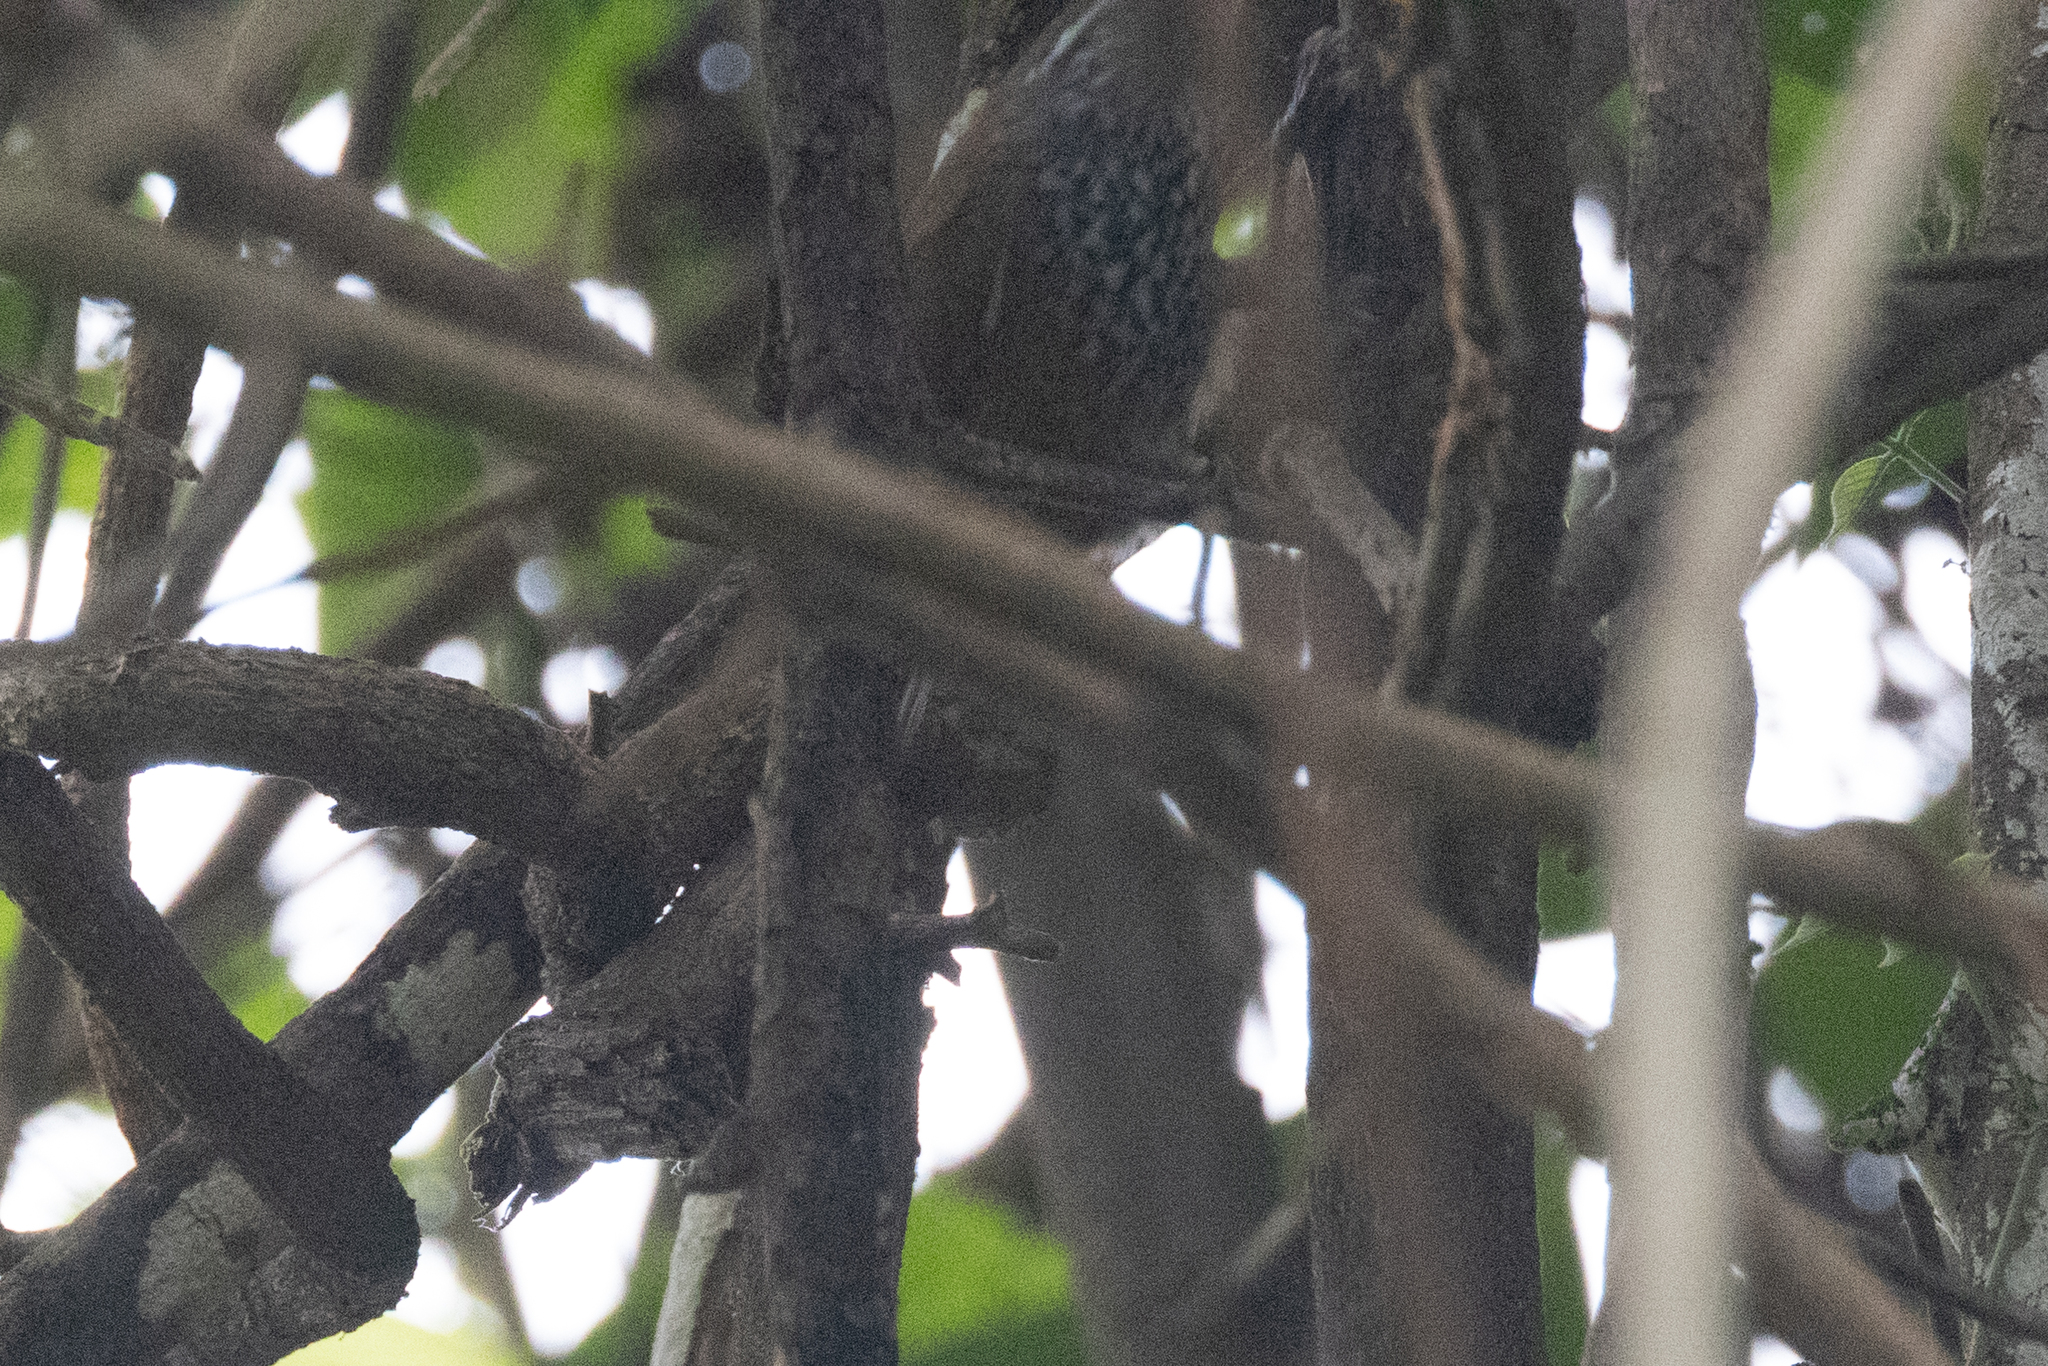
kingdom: Animalia
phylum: Chordata
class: Aves
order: Passeriformes
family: Troglodytidae
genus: Pheugopedius
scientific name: Pheugopedius maculipectus
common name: Spot-breasted wren
